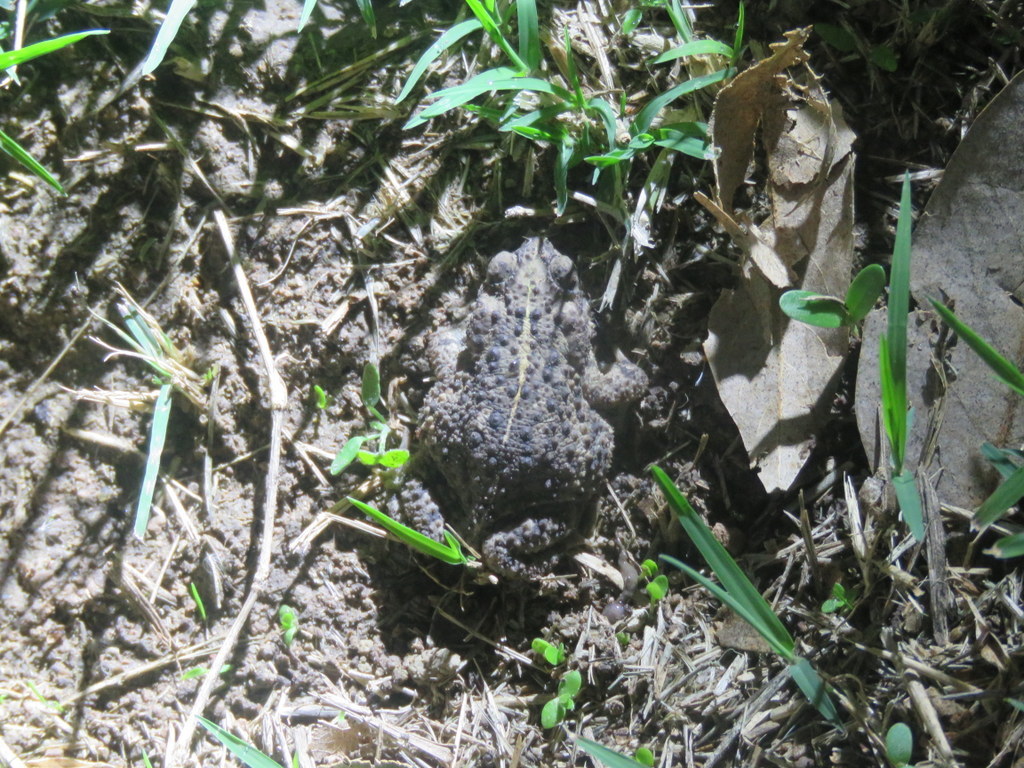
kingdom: Animalia
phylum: Chordata
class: Amphibia
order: Anura
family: Bufonidae
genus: Rhinella
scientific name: Rhinella dorbignyi
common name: D´orbigny’s toad
